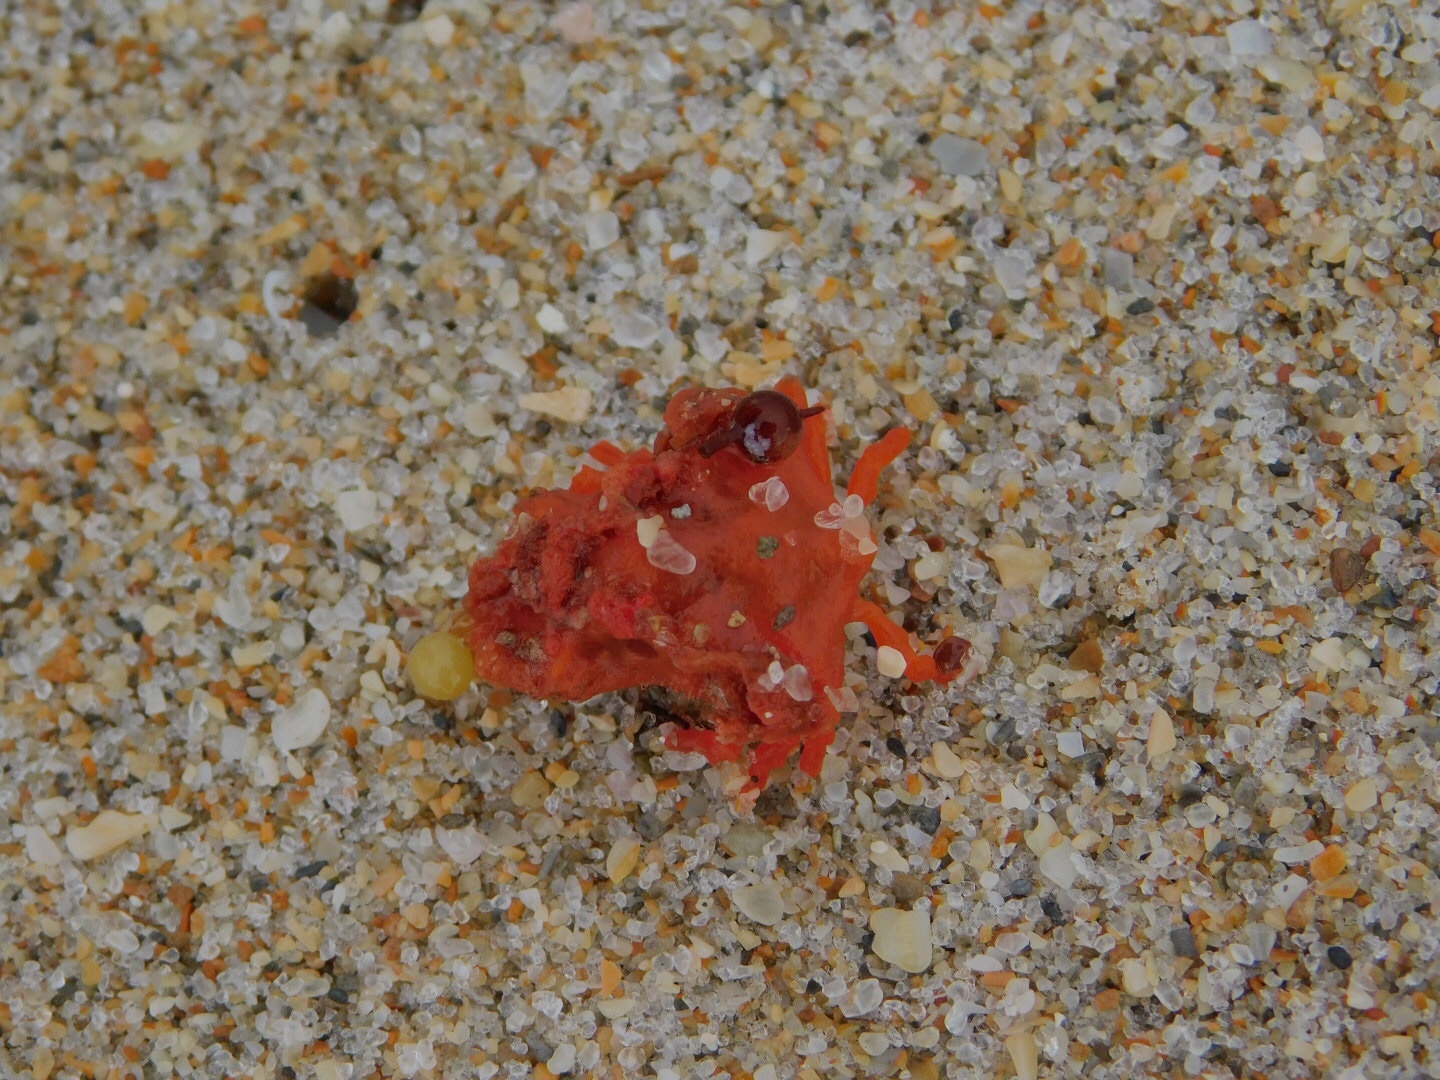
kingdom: Animalia
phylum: Arthropoda
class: Malacostraca
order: Decapoda
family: Epialtidae
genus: Macrocoeloma
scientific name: Macrocoeloma trispinosum
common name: Grass crab
